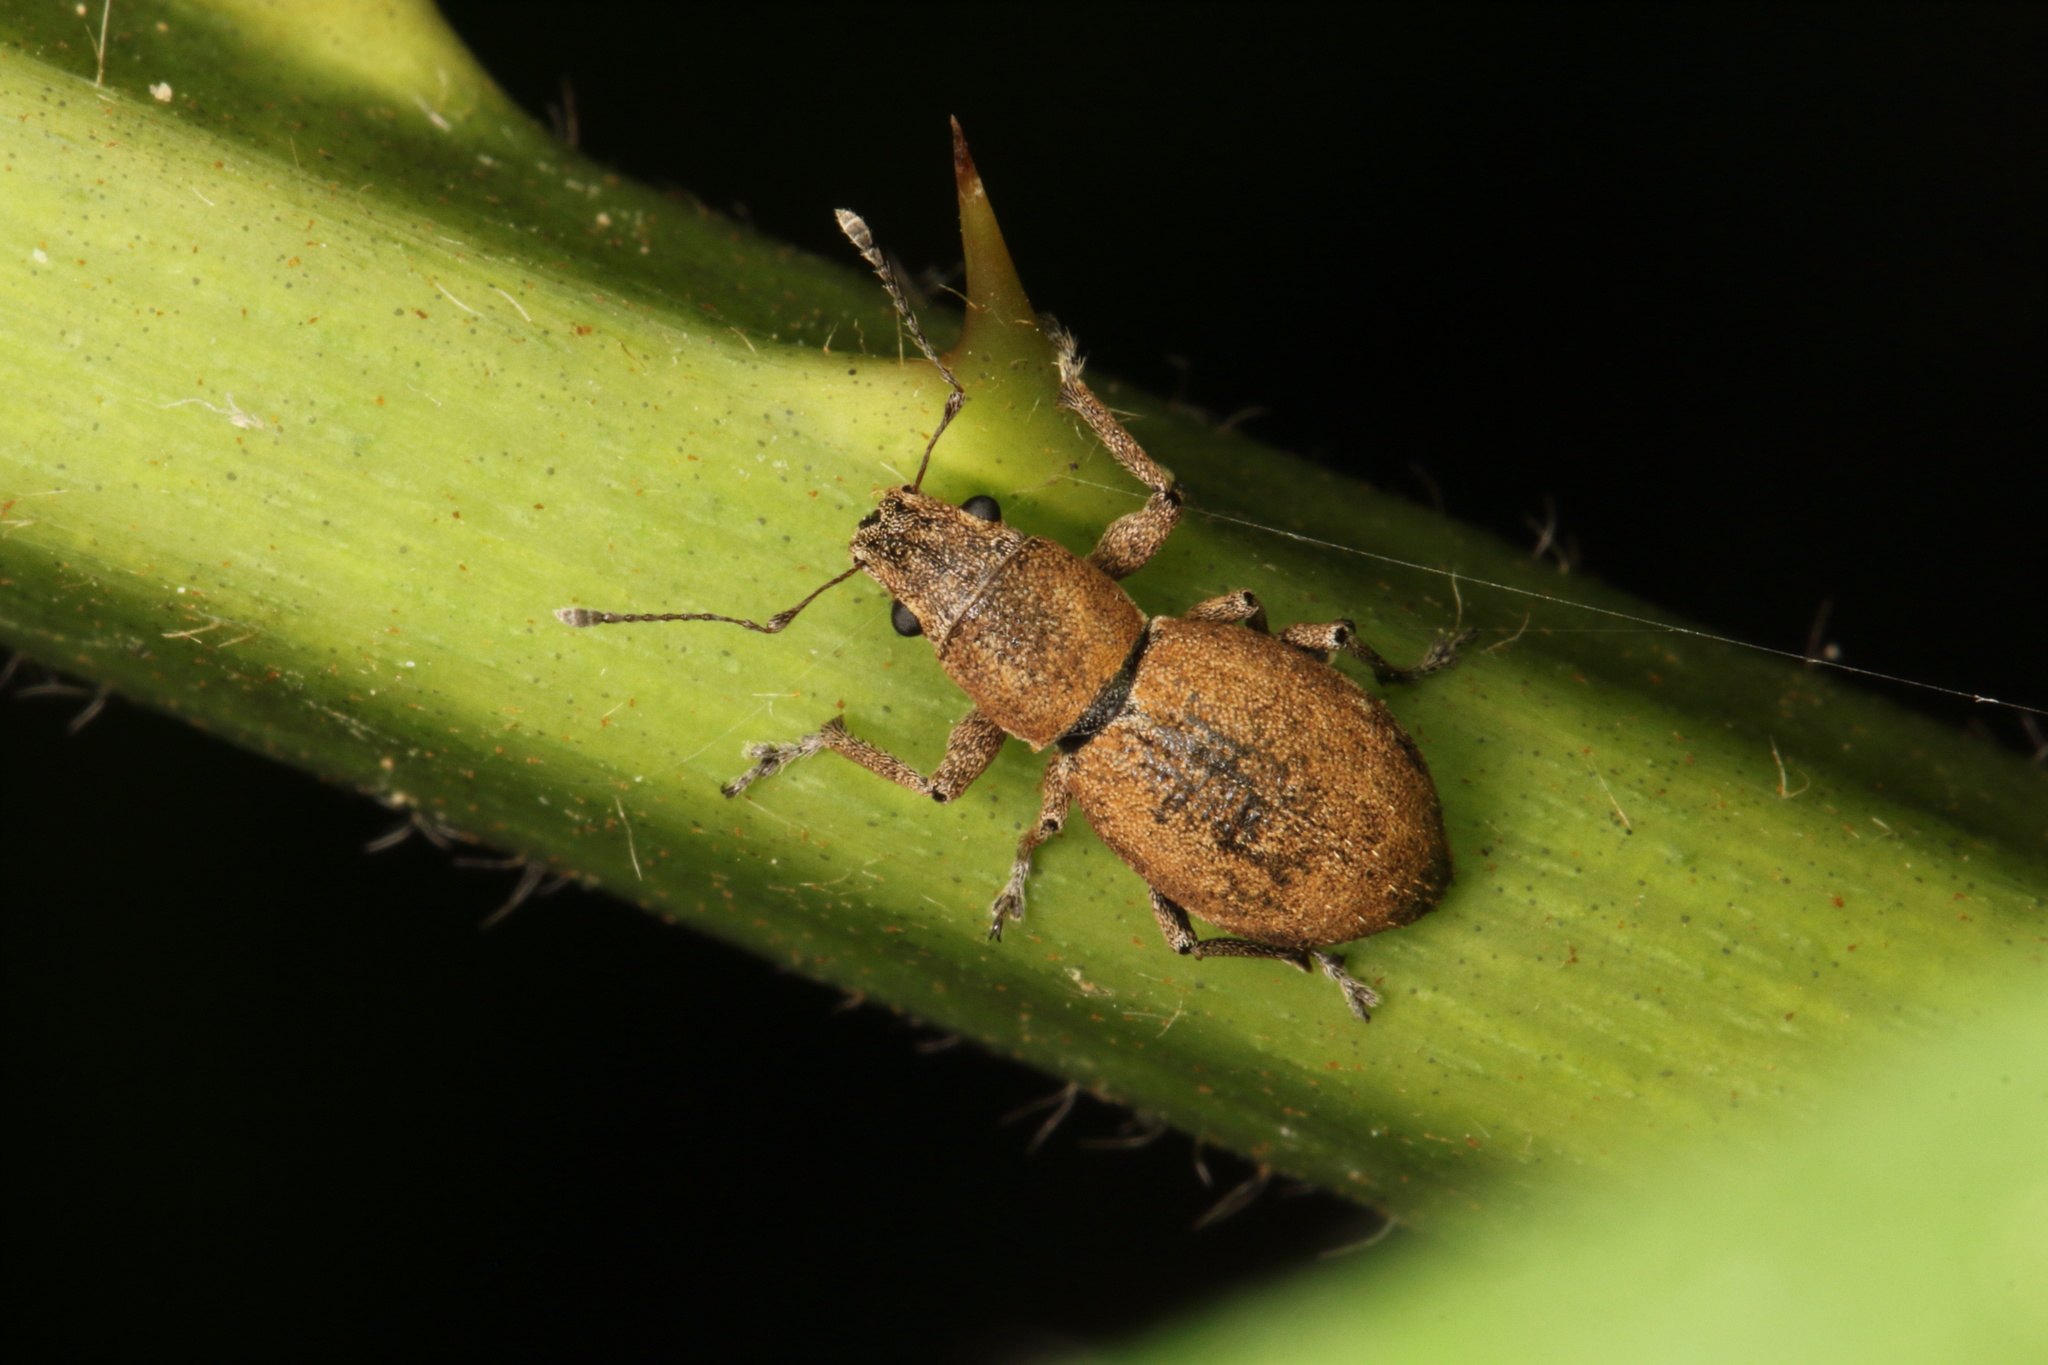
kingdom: Animalia
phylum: Arthropoda
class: Insecta
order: Coleoptera
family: Curculionidae
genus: Naupactus
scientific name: Naupactus cervinus
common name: Fuller rose beetle
